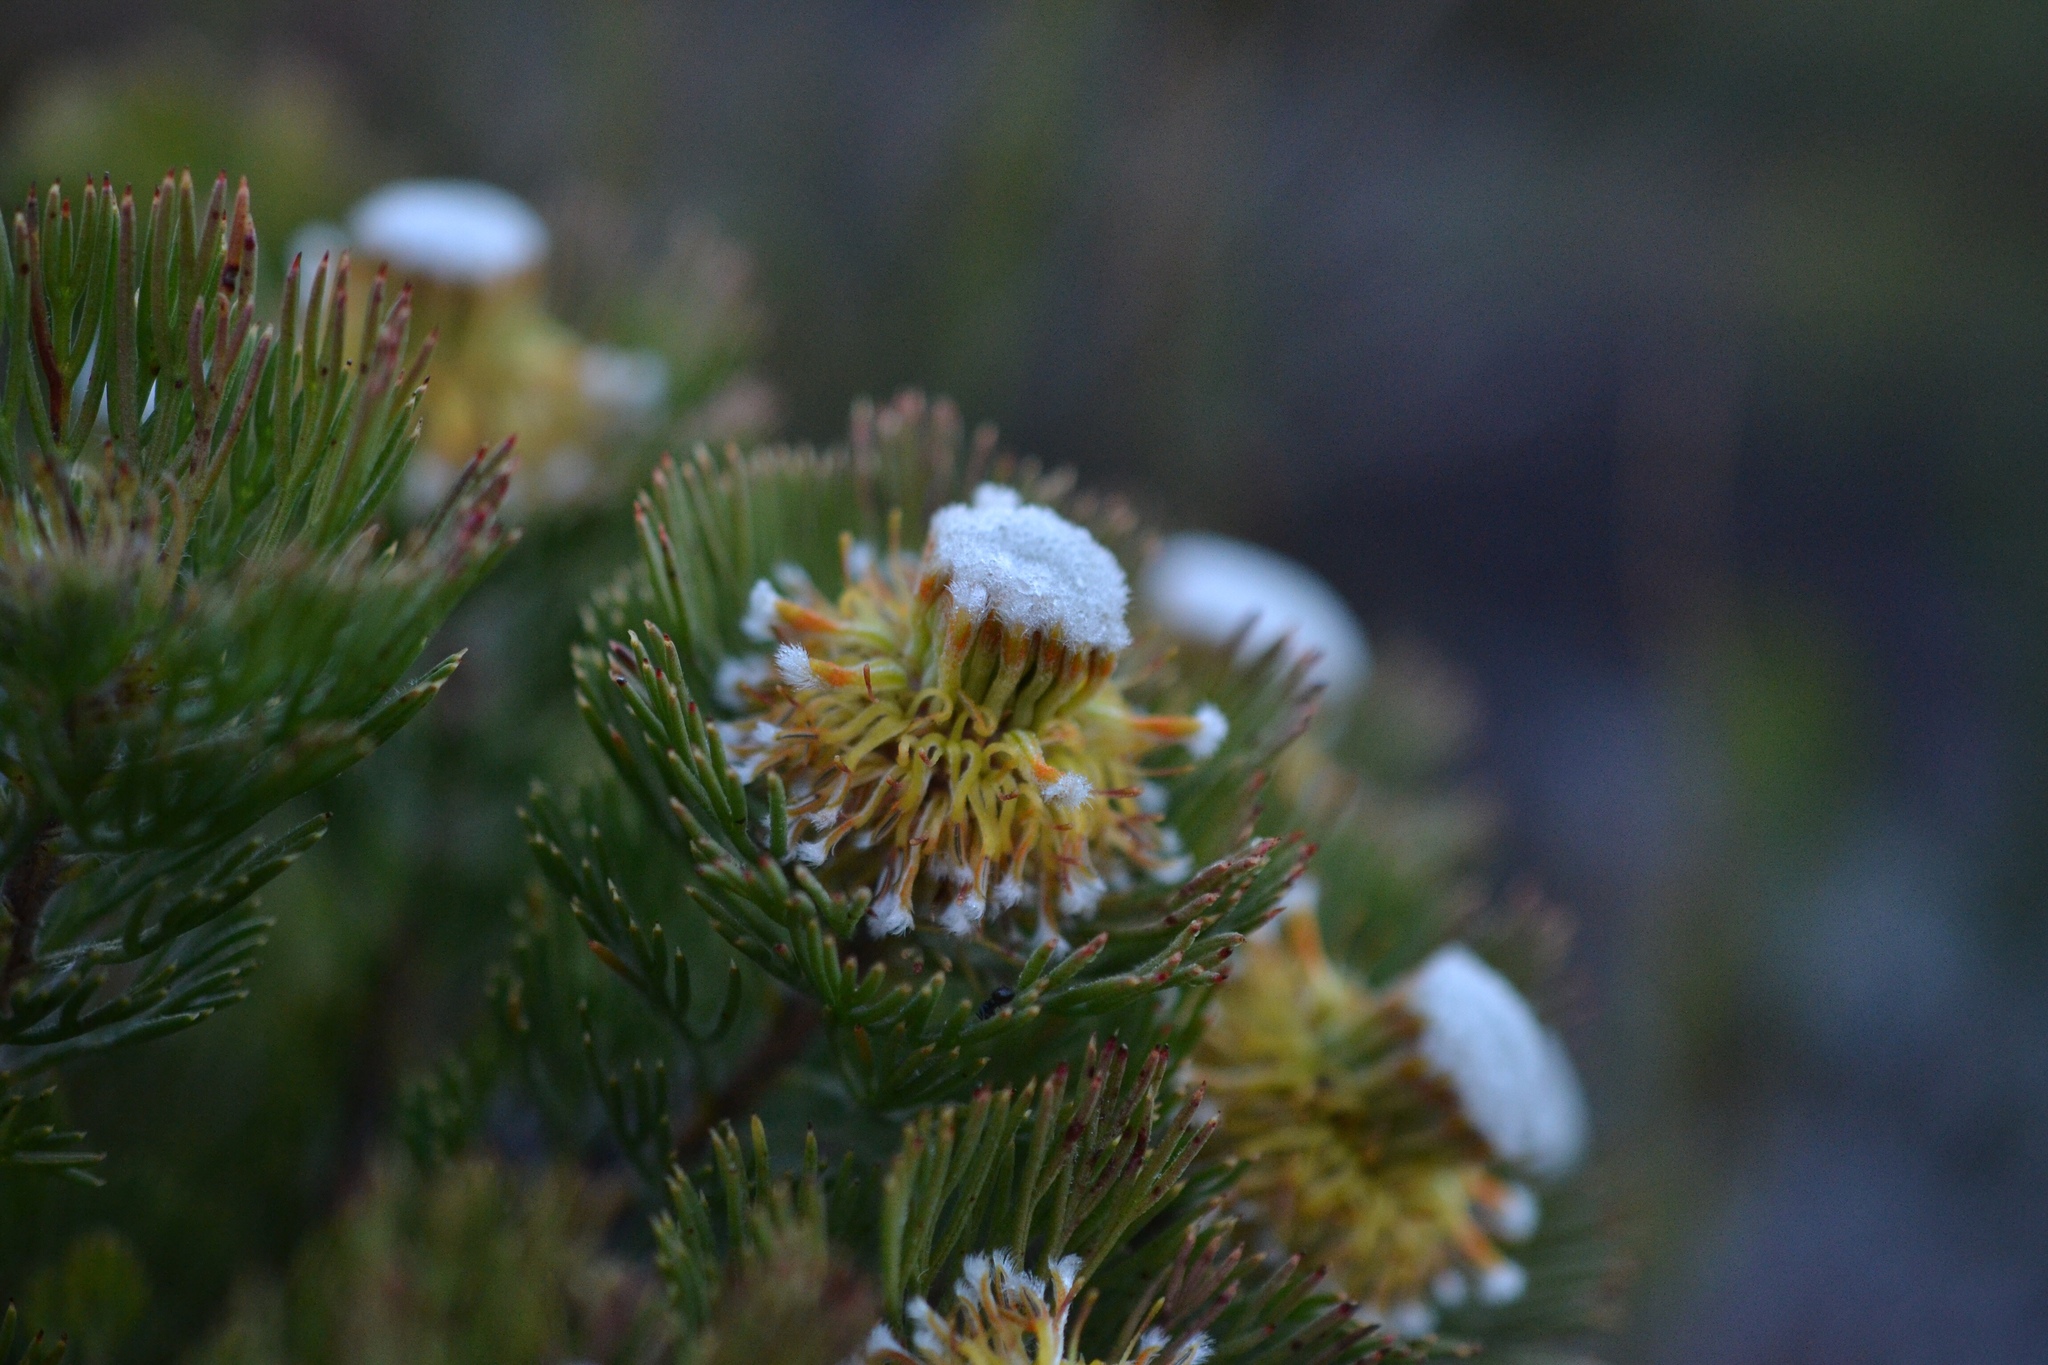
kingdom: Plantae
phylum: Tracheophyta
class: Magnoliopsida
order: Proteales
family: Proteaceae
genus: Serruria
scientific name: Serruria villosa
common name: Golden spiderhead
